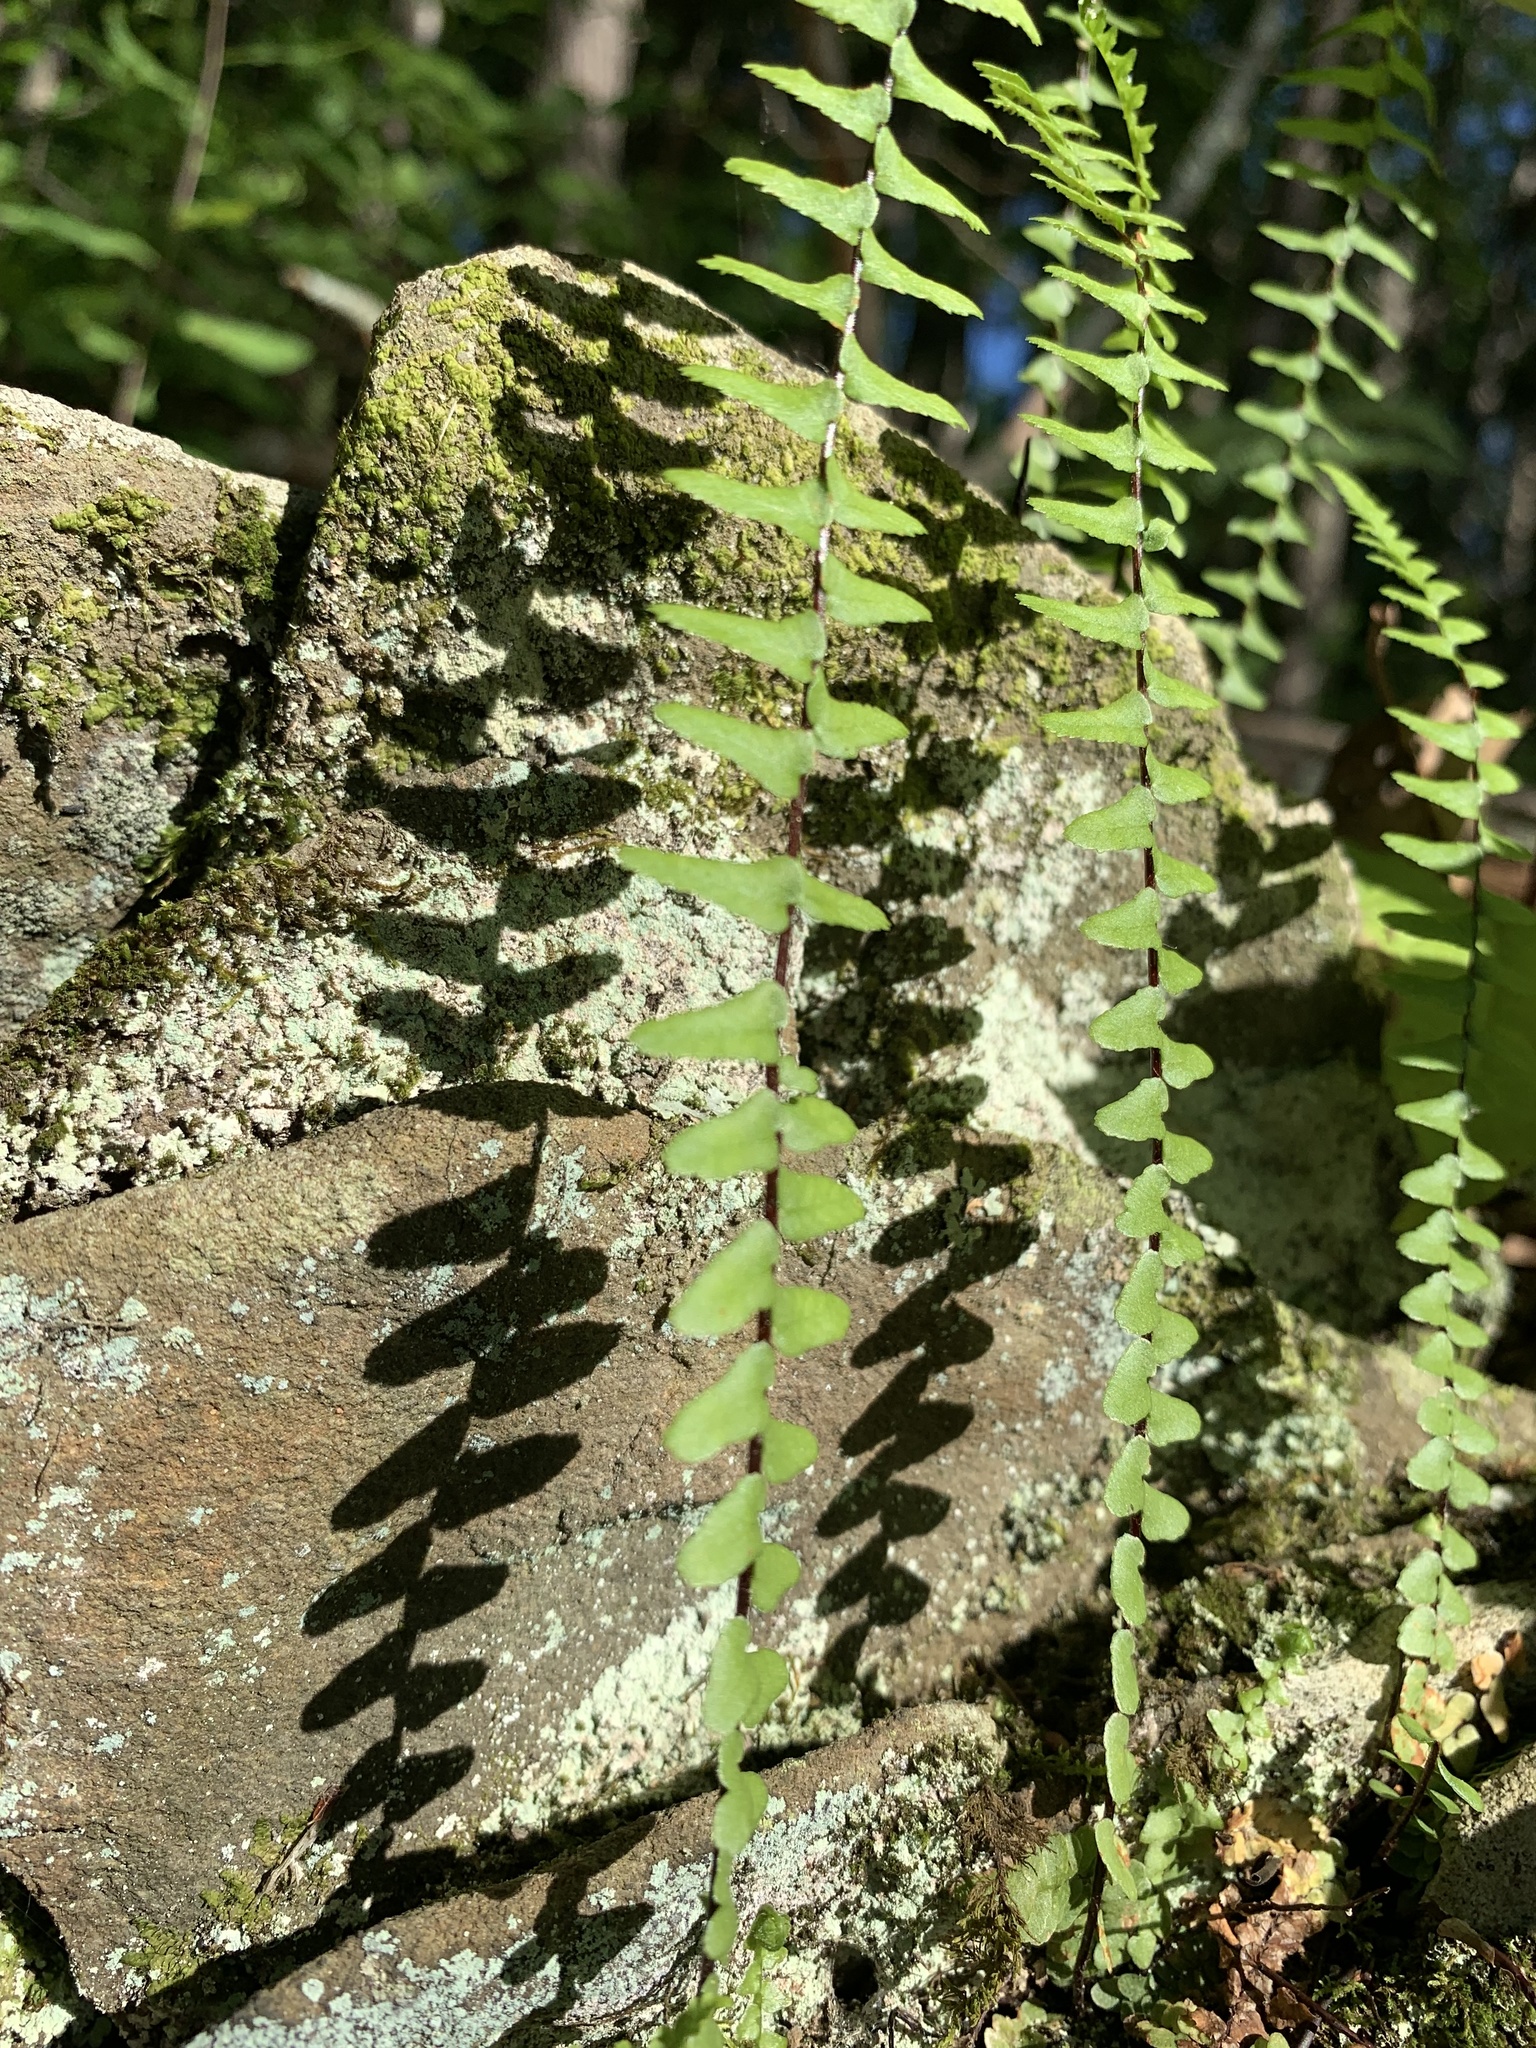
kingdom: Plantae
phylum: Tracheophyta
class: Polypodiopsida
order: Polypodiales
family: Aspleniaceae
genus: Asplenium
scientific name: Asplenium platyneuron
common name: Ebony spleenwort
